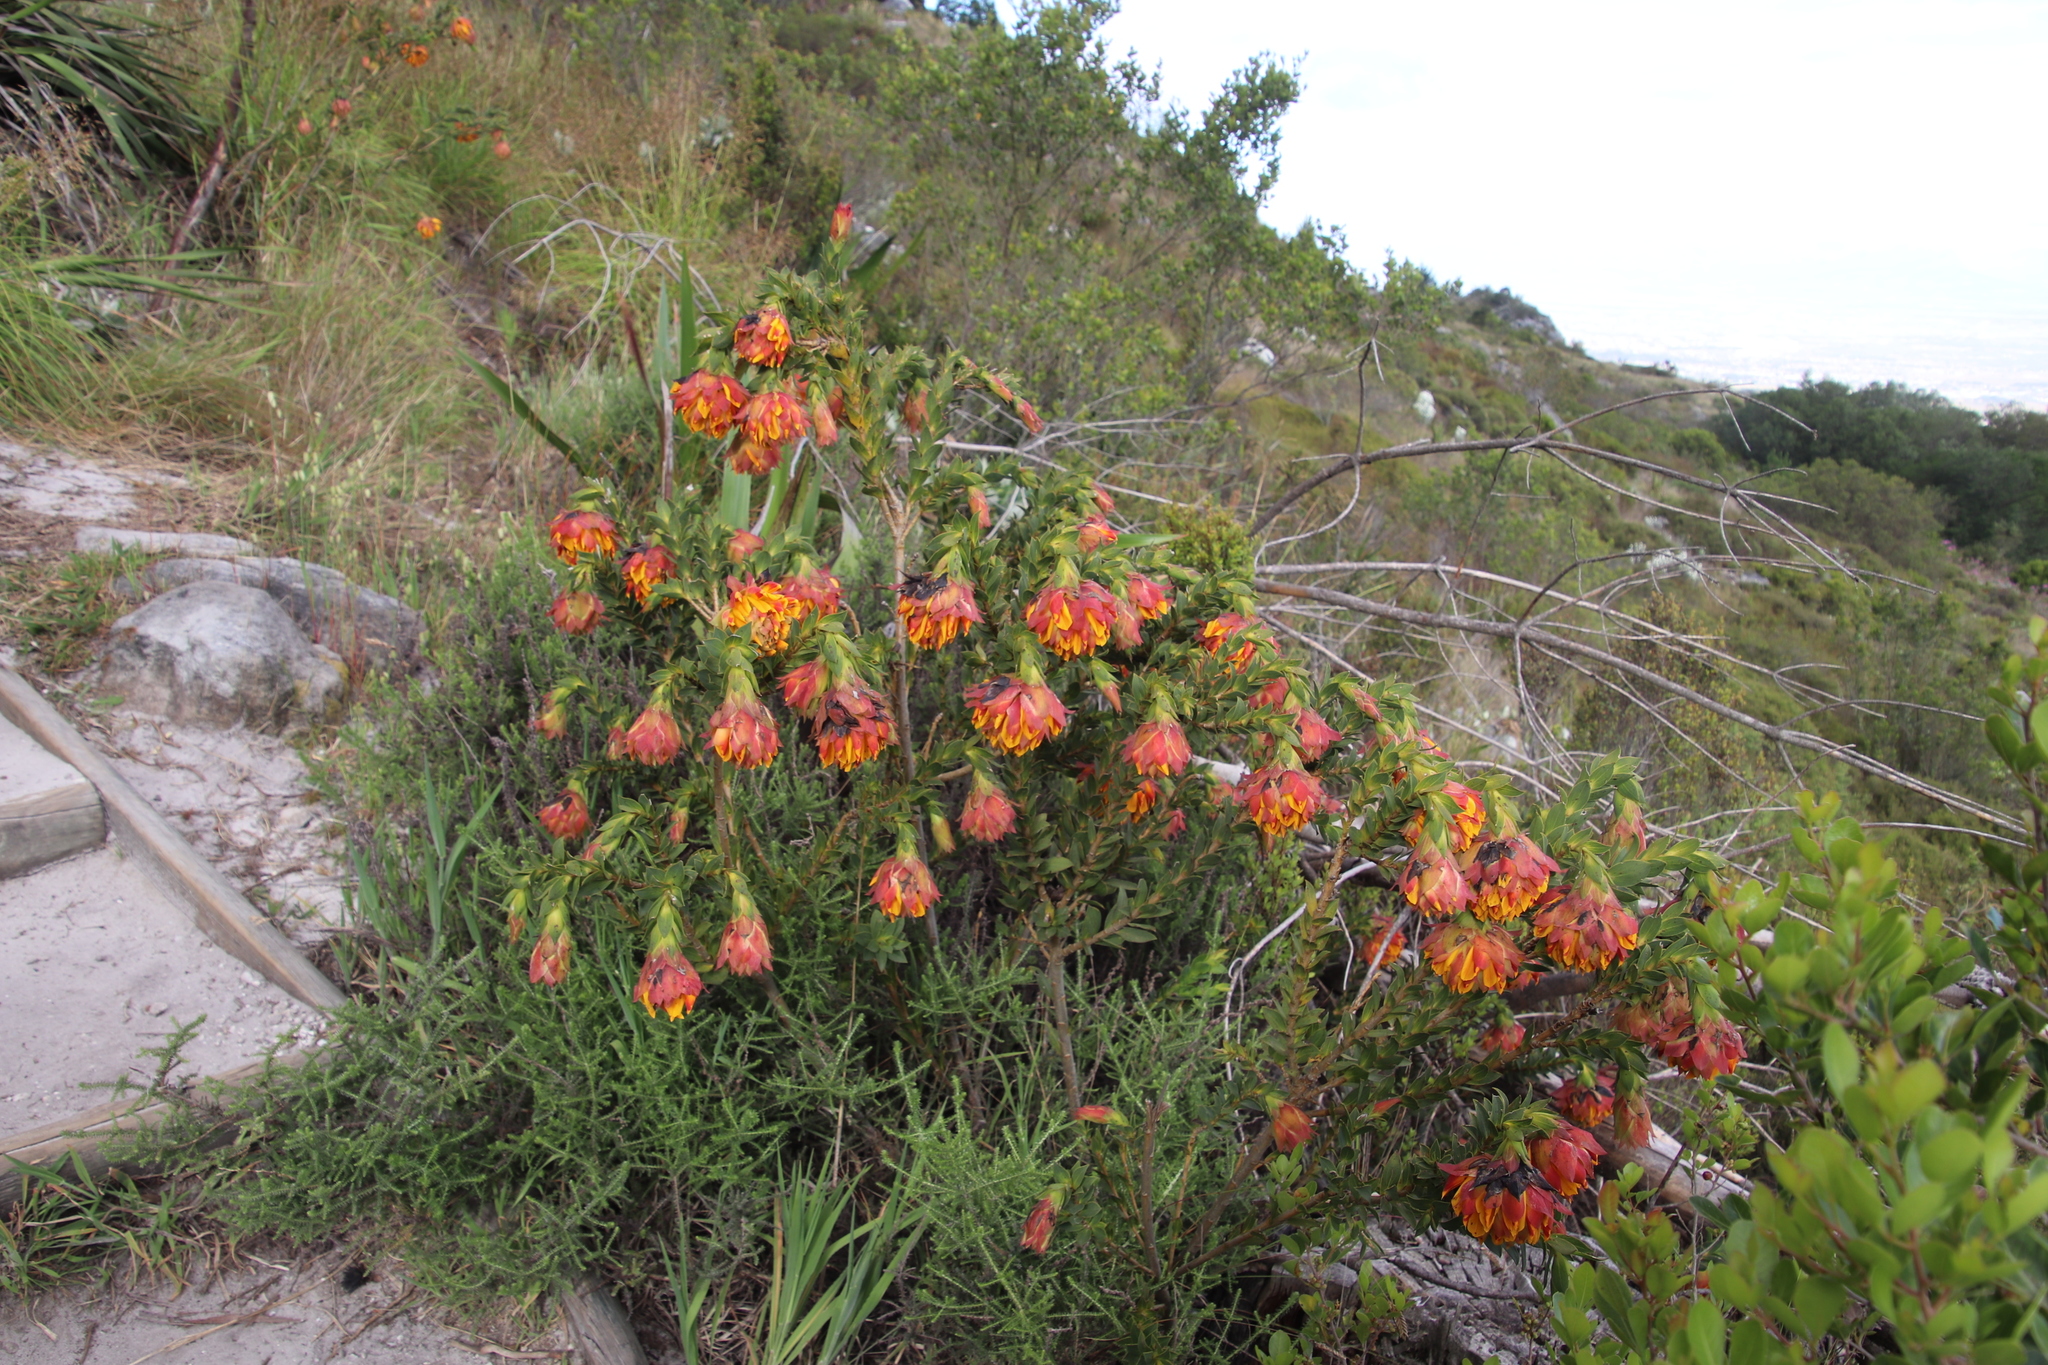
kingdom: Plantae
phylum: Tracheophyta
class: Magnoliopsida
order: Fabales
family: Fabaceae
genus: Liparia
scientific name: Liparia splendens
